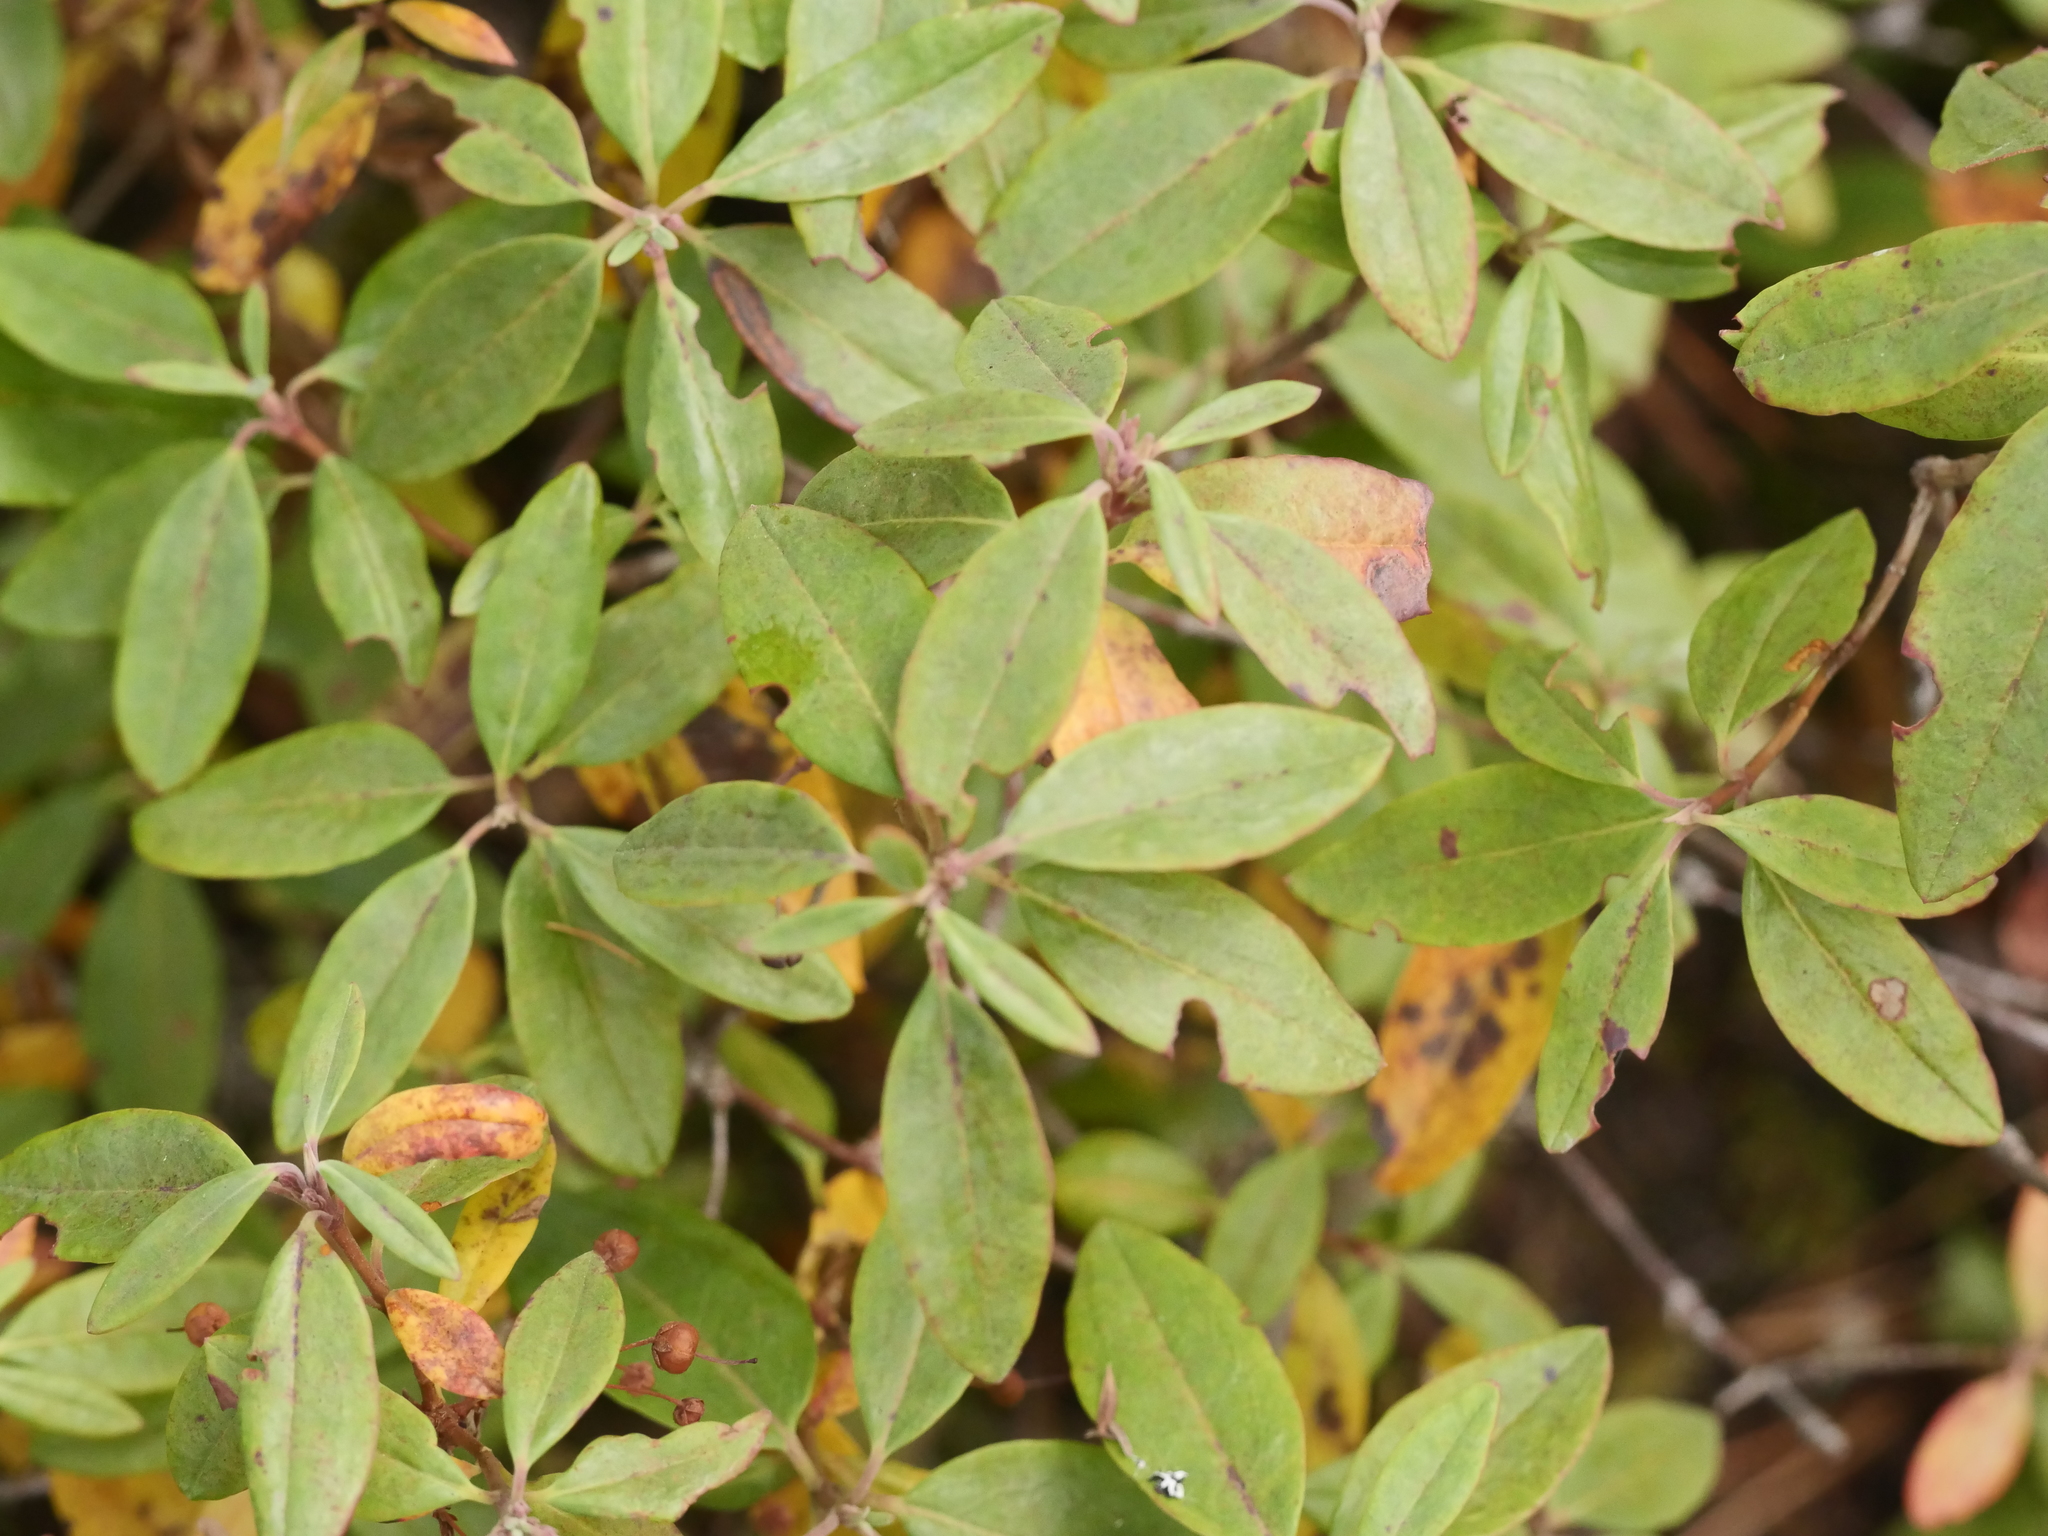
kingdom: Plantae
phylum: Tracheophyta
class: Magnoliopsida
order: Ericales
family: Ericaceae
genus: Kalmia
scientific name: Kalmia angustifolia
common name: Sheep-laurel
